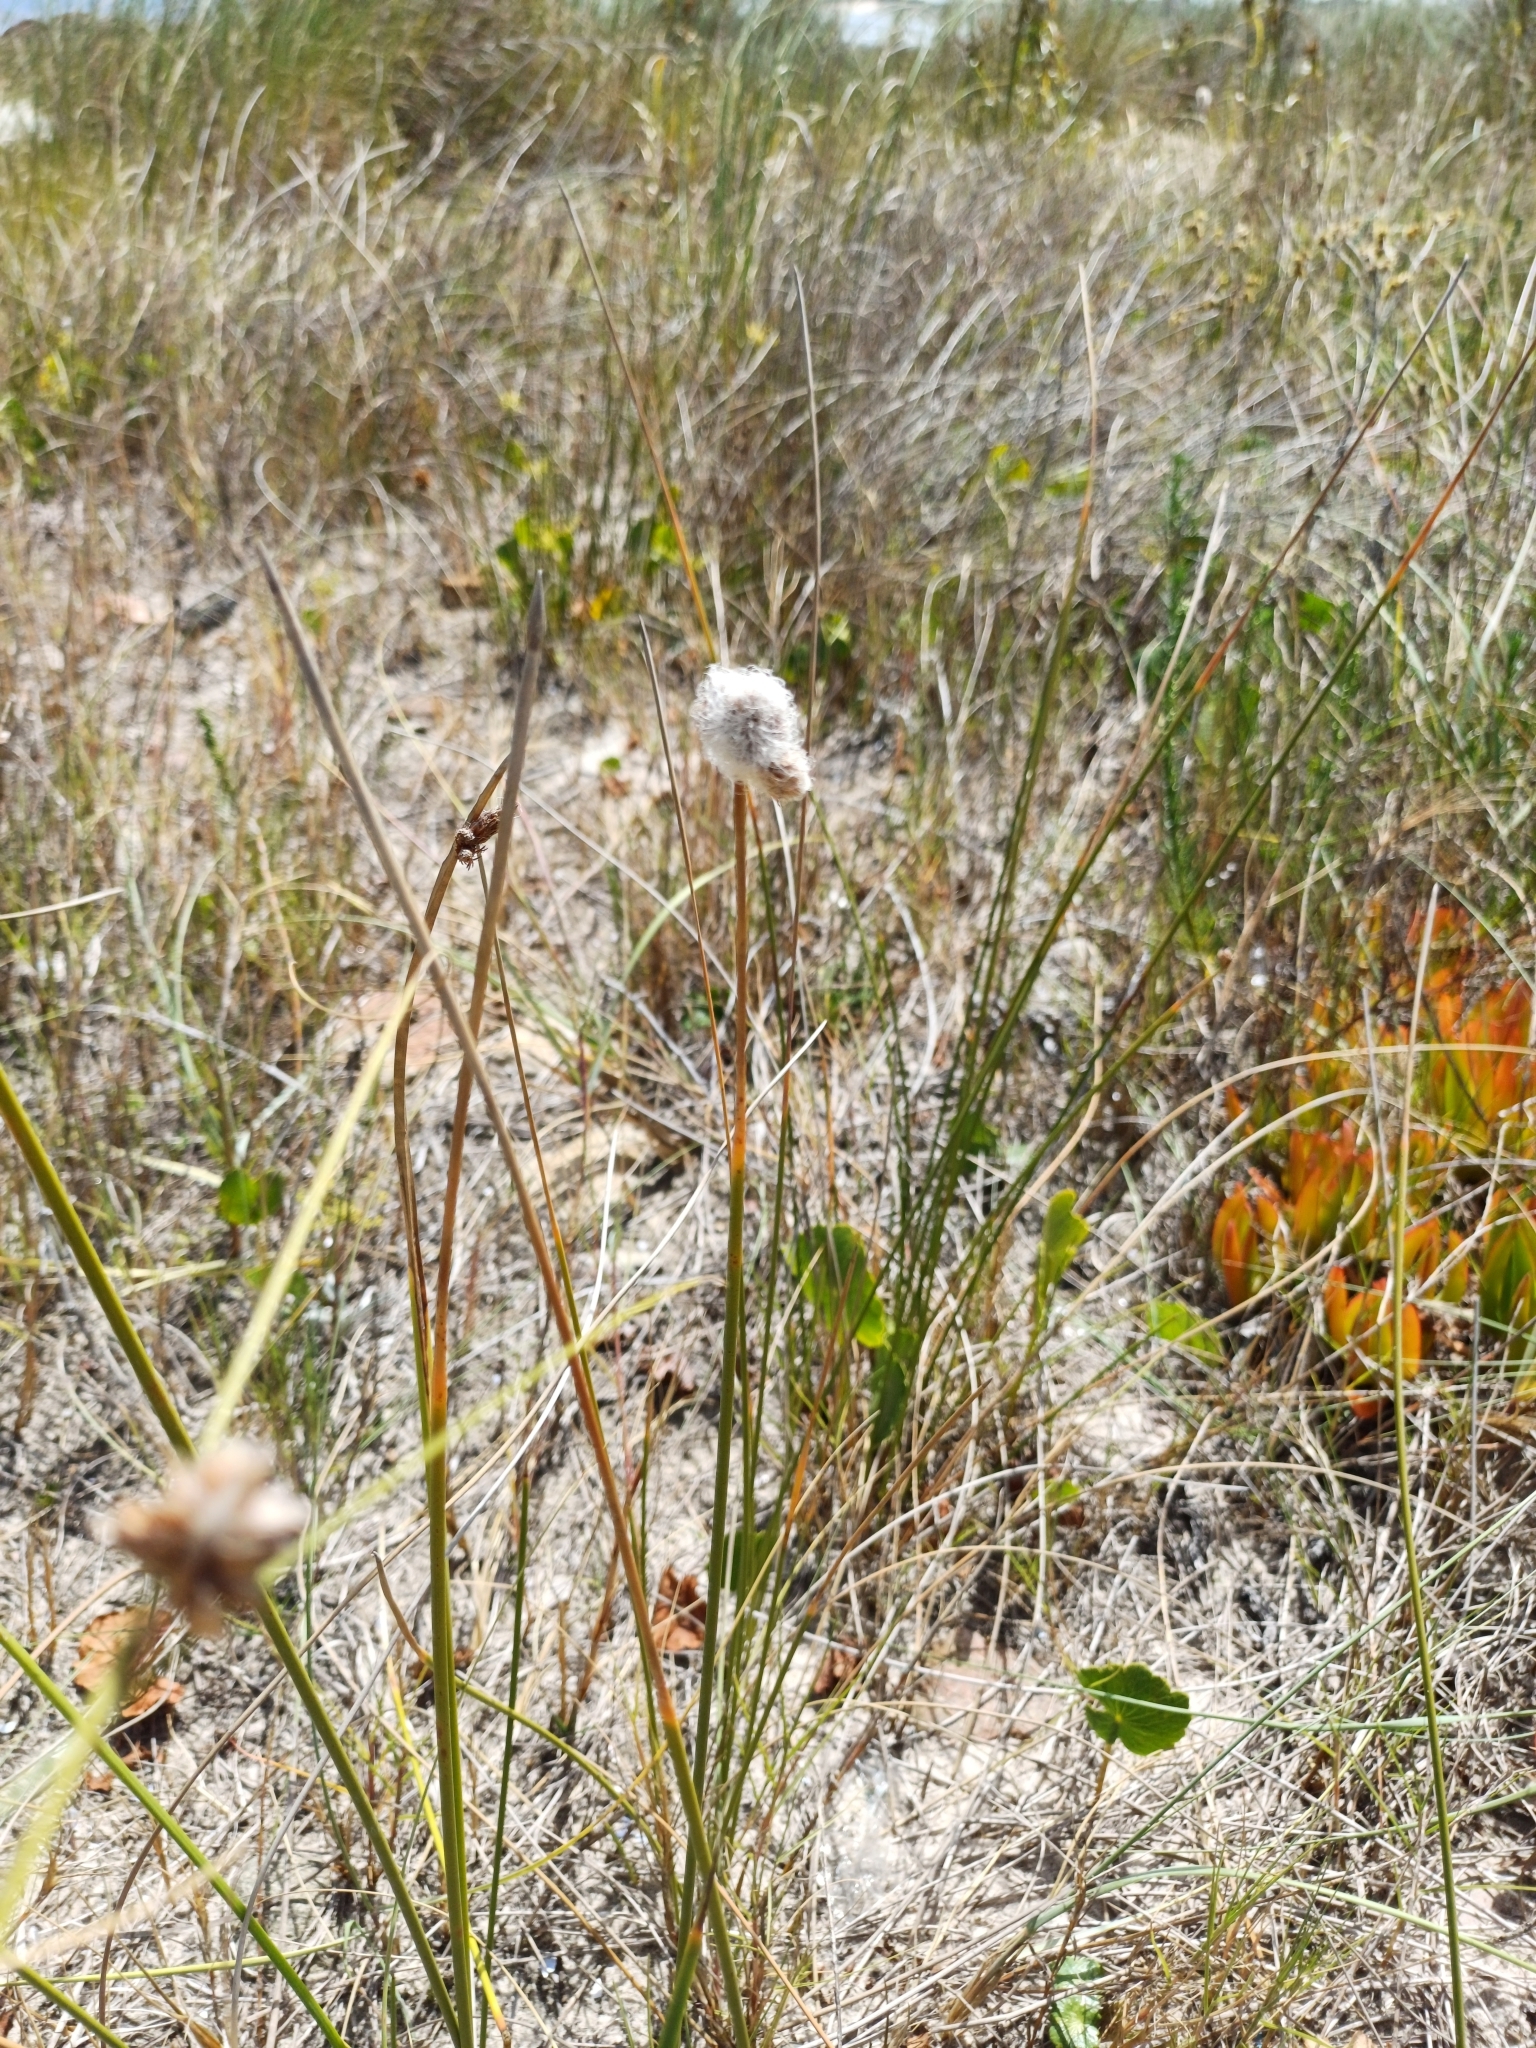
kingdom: Plantae
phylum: Tracheophyta
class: Liliopsida
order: Poales
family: Cyperaceae
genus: Cyperus
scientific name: Cyperus trigynus
